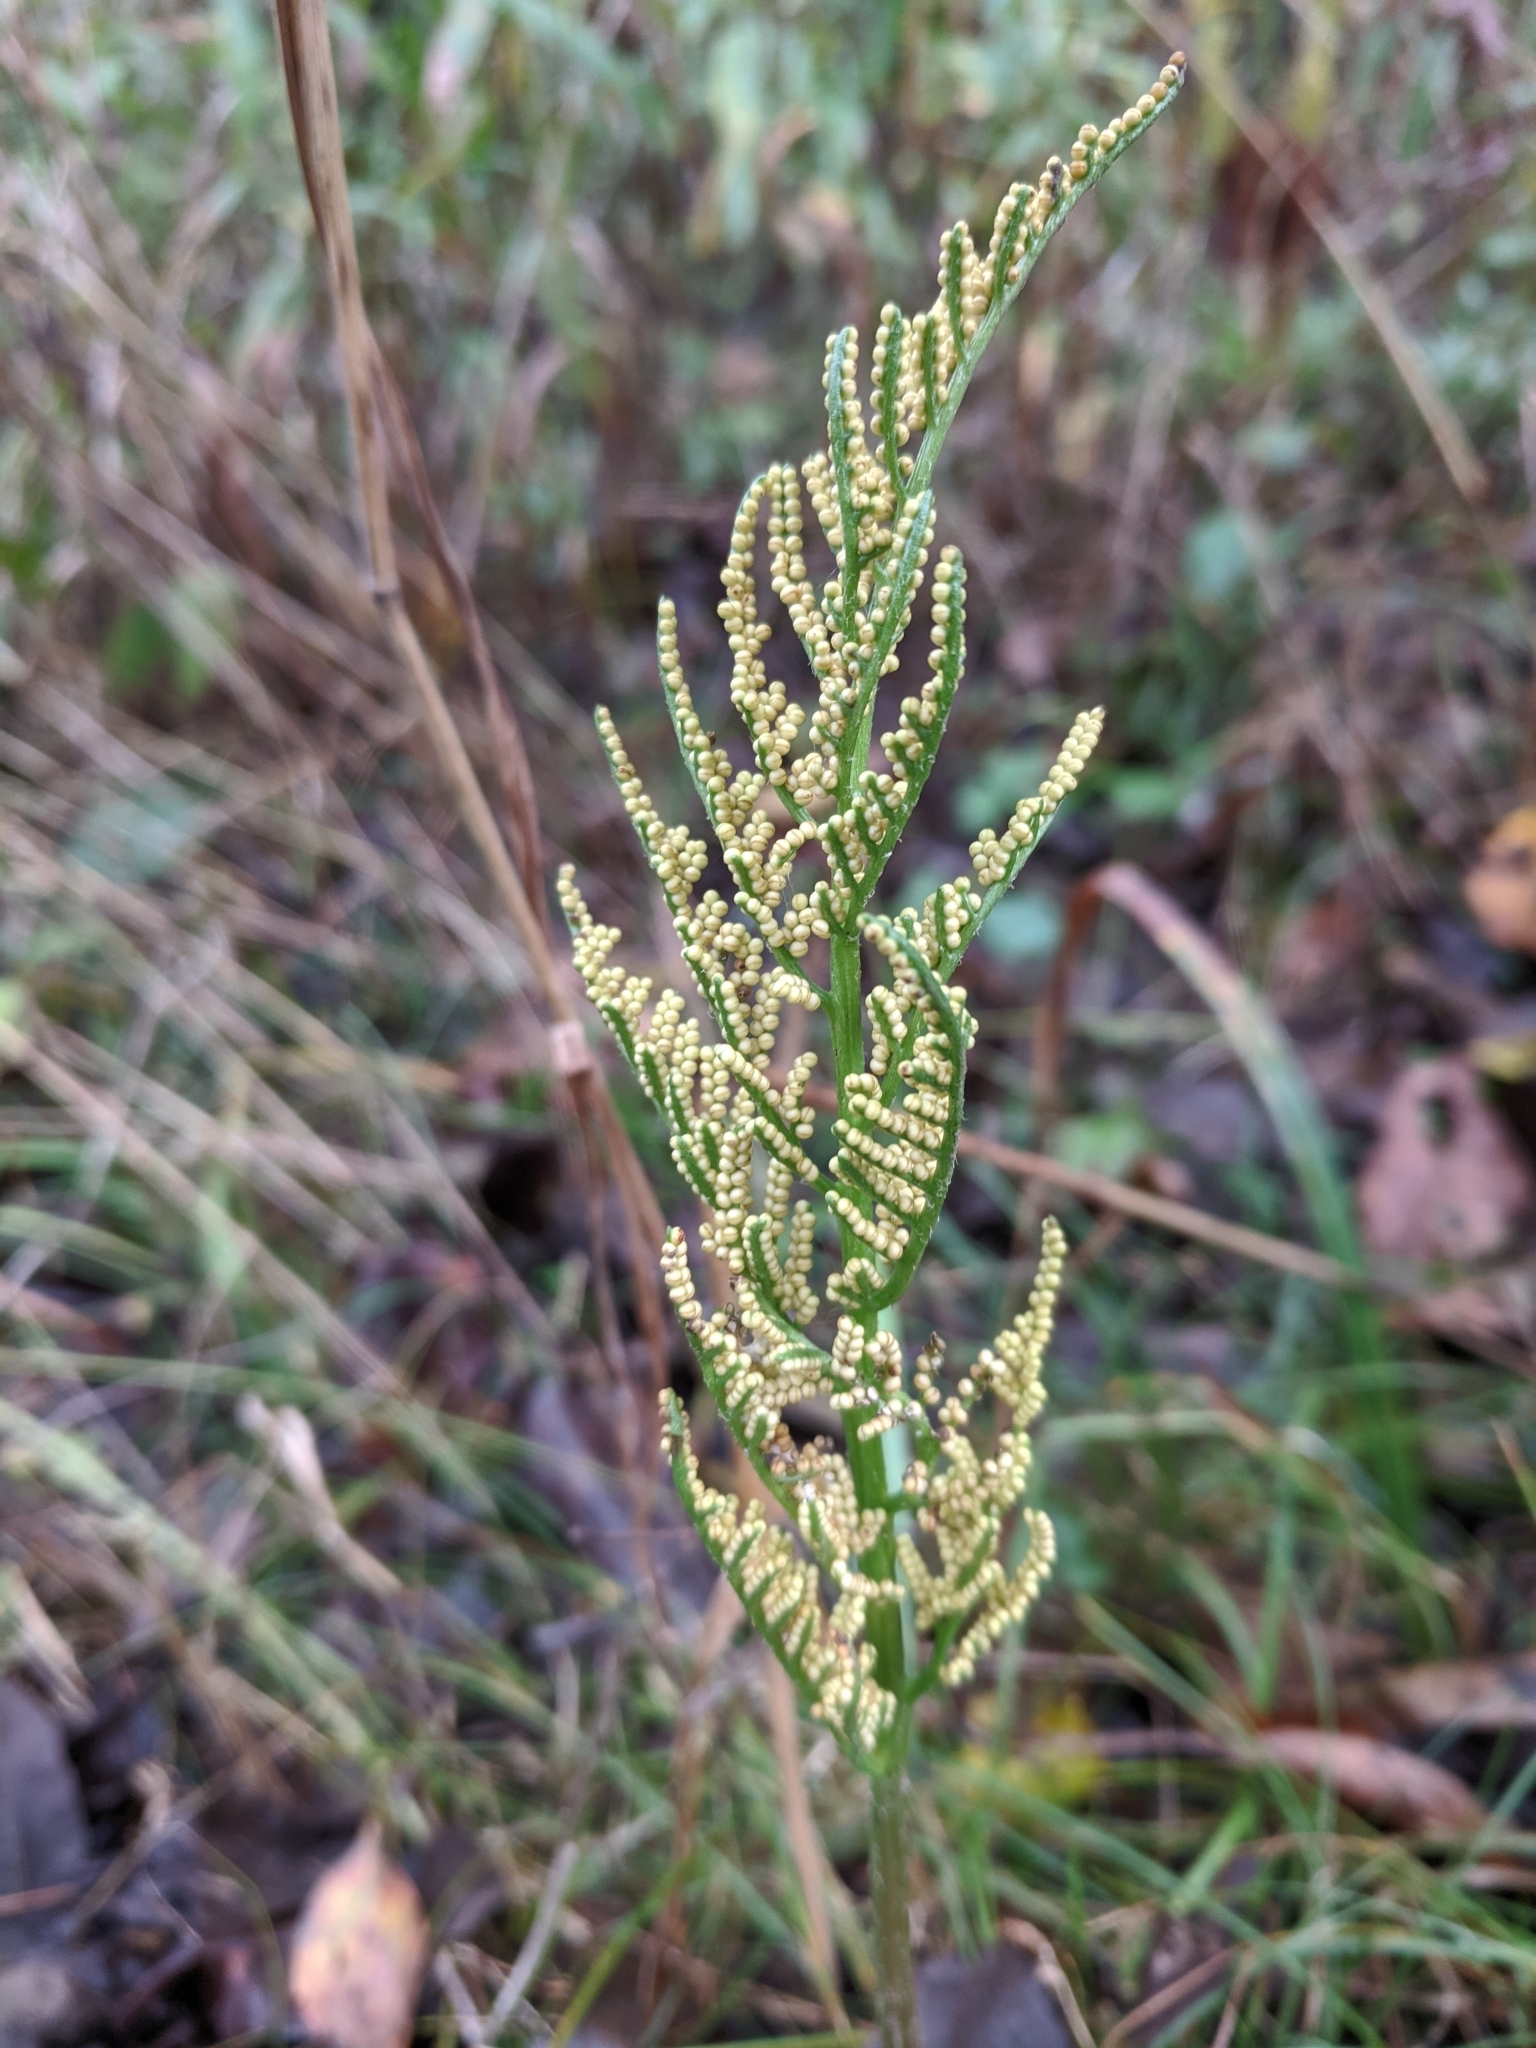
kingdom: Plantae
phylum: Tracheophyta
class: Polypodiopsida
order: Ophioglossales
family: Ophioglossaceae
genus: Sceptridium
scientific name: Sceptridium dissectum
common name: Cut-leaved grapefern
